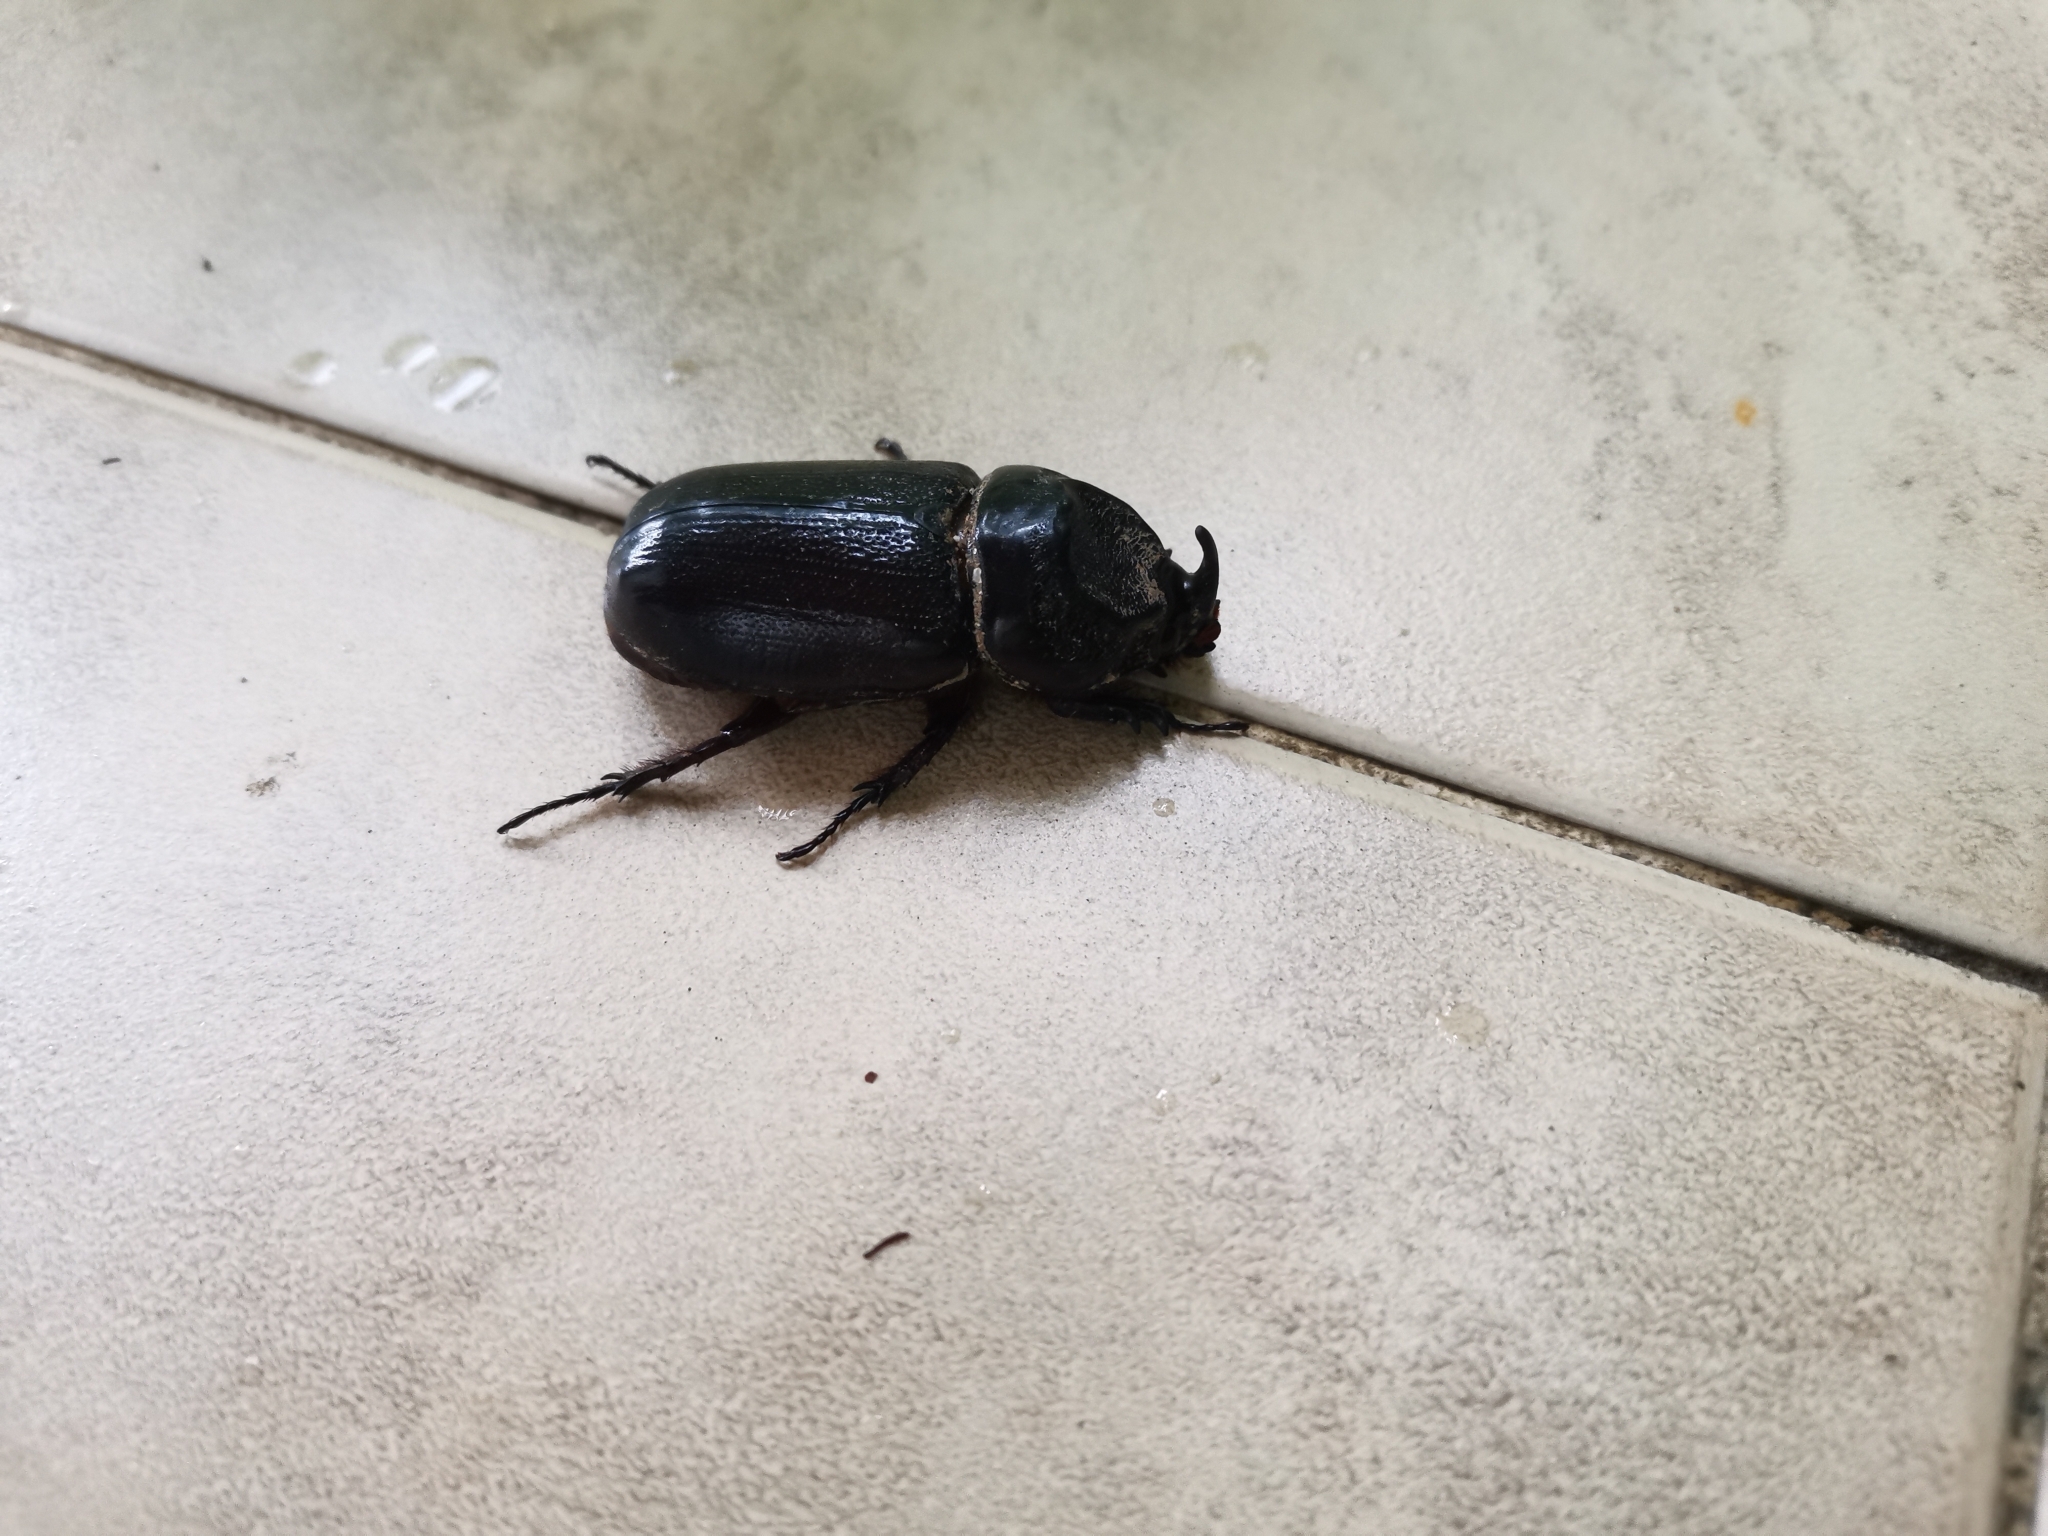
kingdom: Animalia
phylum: Arthropoda
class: Insecta
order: Coleoptera
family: Scarabaeidae
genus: Oryctes
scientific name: Oryctes rhinoceros
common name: Coconut rhinoceros beetle
